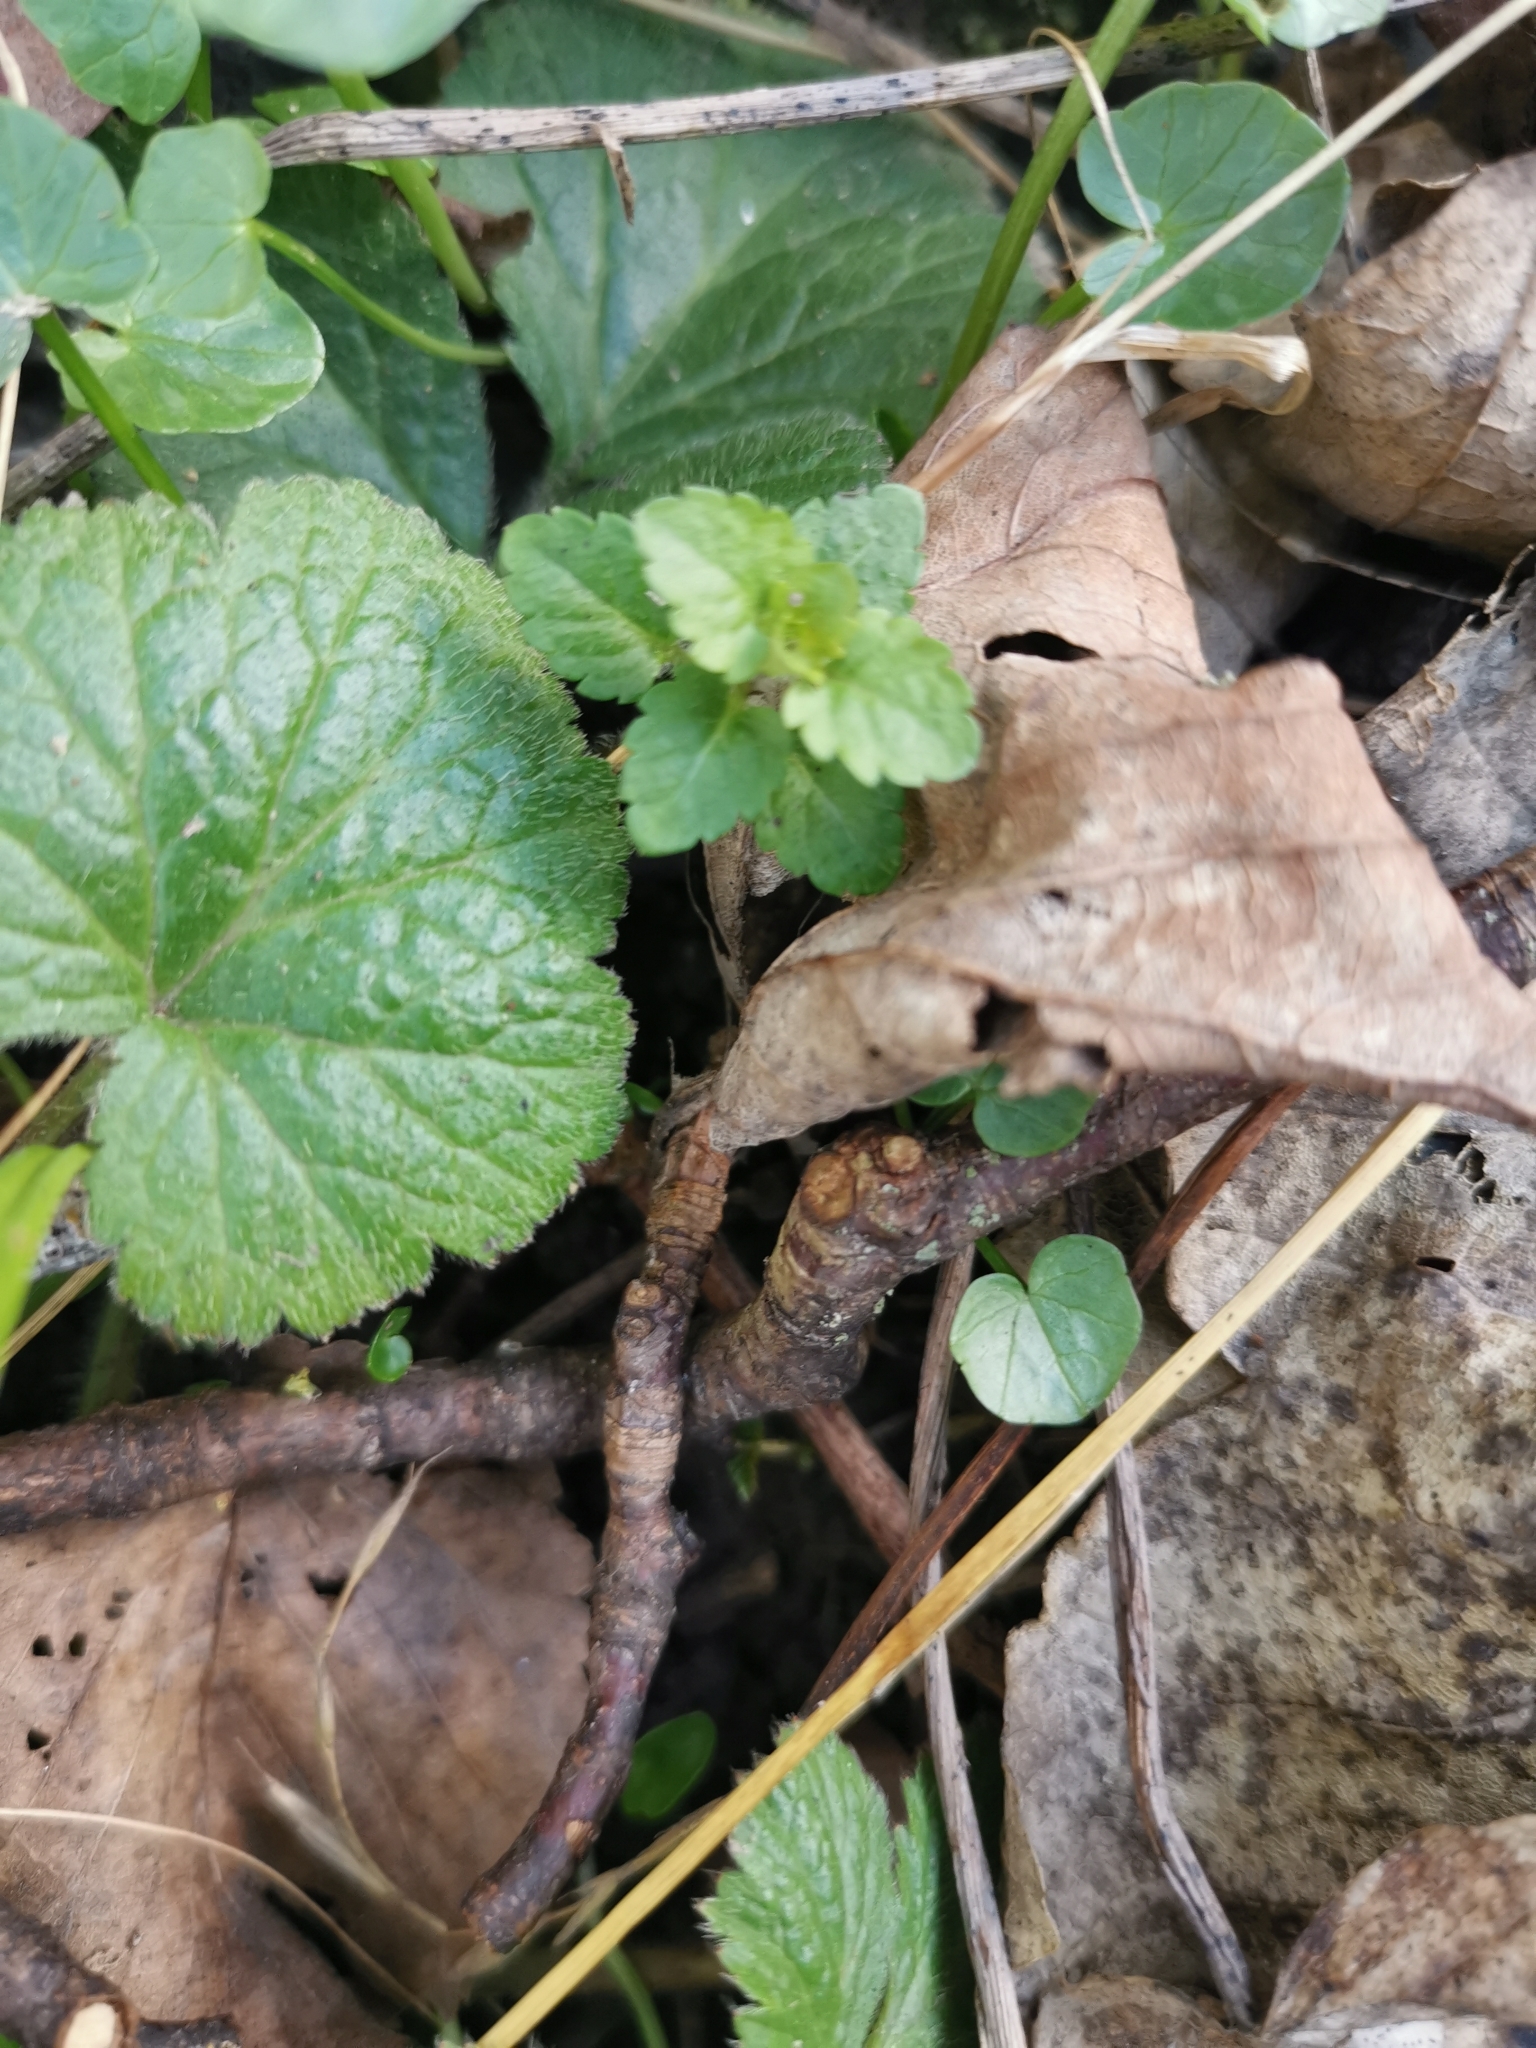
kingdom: Plantae
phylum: Tracheophyta
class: Magnoliopsida
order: Lamiales
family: Plantaginaceae
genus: Veronica
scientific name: Veronica chamaedrys
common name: Germander speedwell
